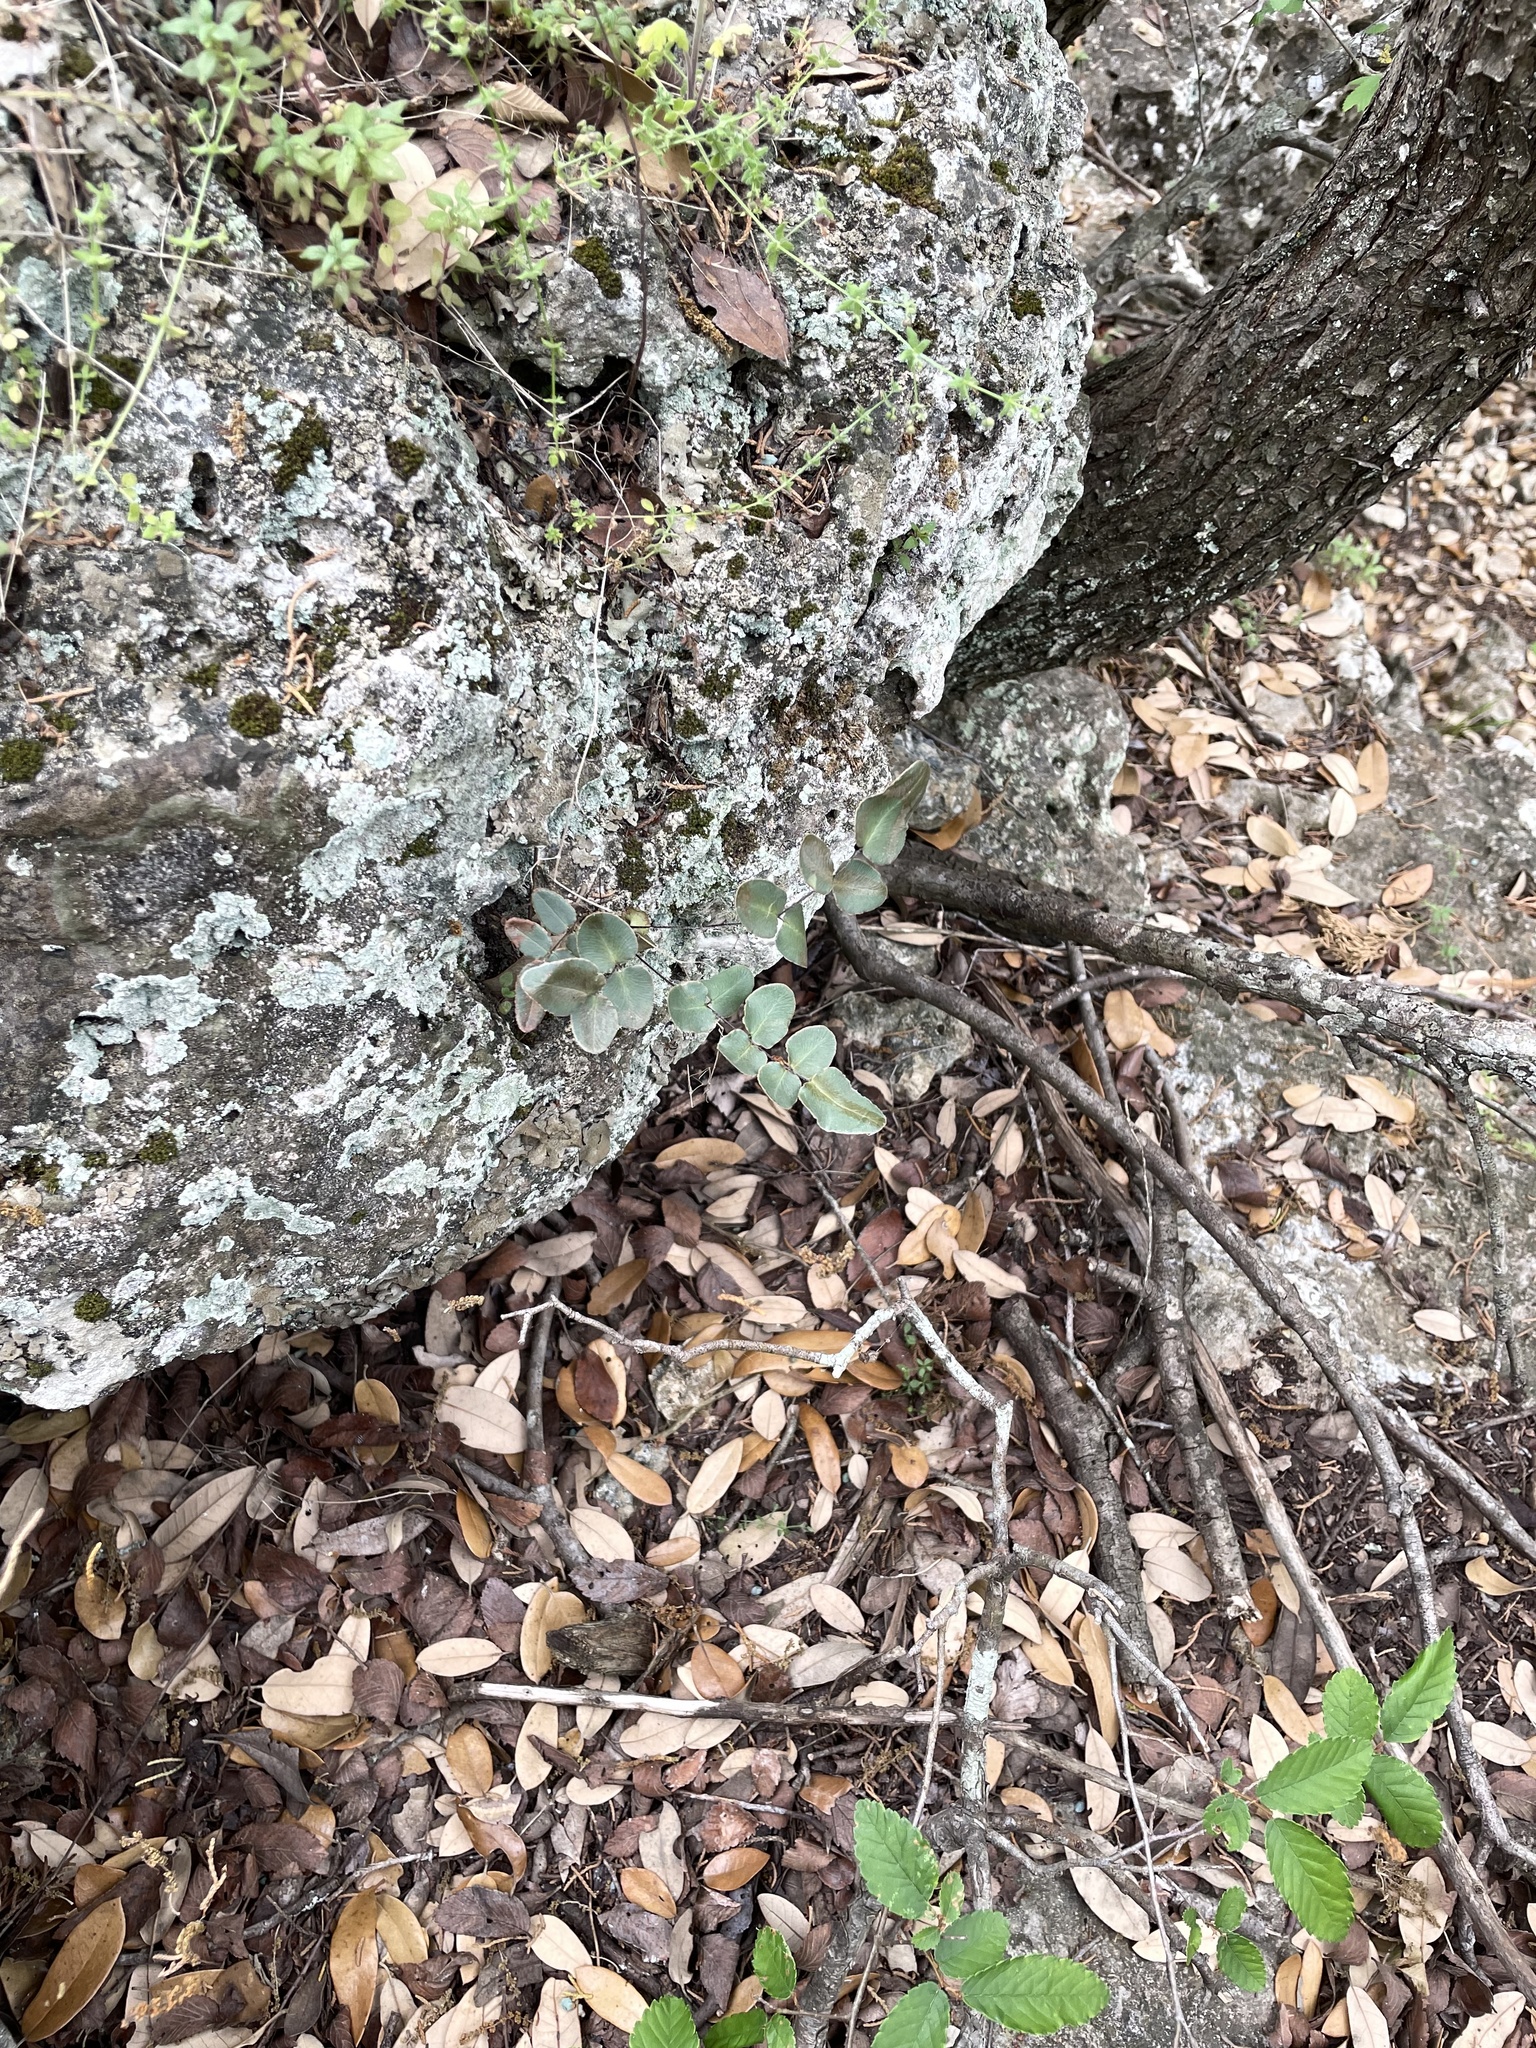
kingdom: Plantae
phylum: Tracheophyta
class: Polypodiopsida
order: Polypodiales
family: Pteridaceae
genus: Pellaea
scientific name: Pellaea atropurpurea
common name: Hairy cliffbrake
